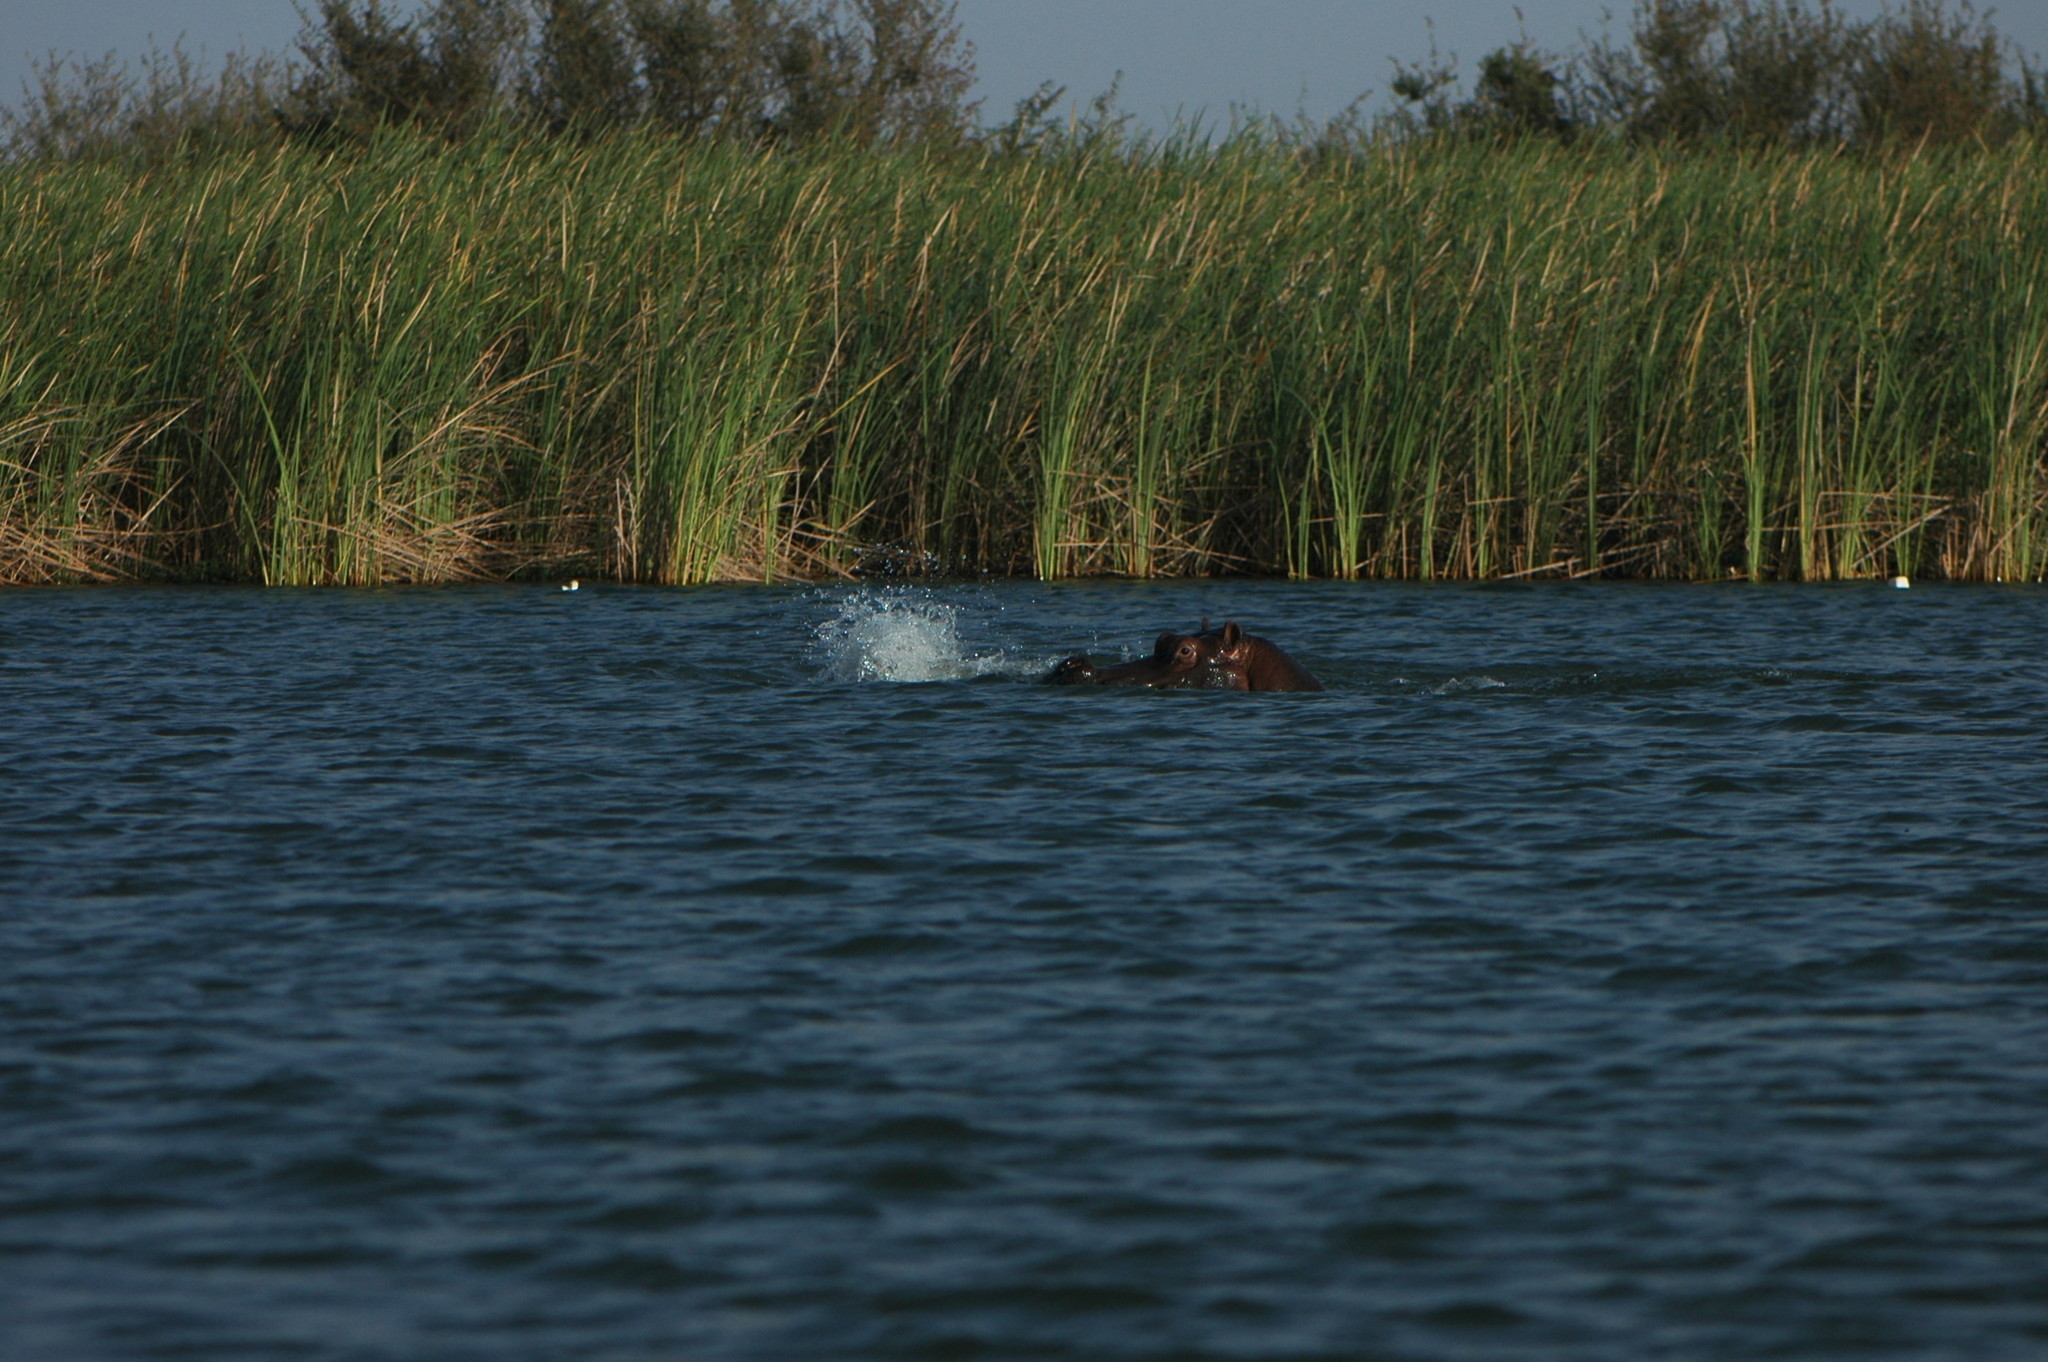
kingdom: Animalia
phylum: Chordata
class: Mammalia
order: Artiodactyla
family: Hippopotamidae
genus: Hippopotamus
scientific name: Hippopotamus amphibius
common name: Common hippopotamus
